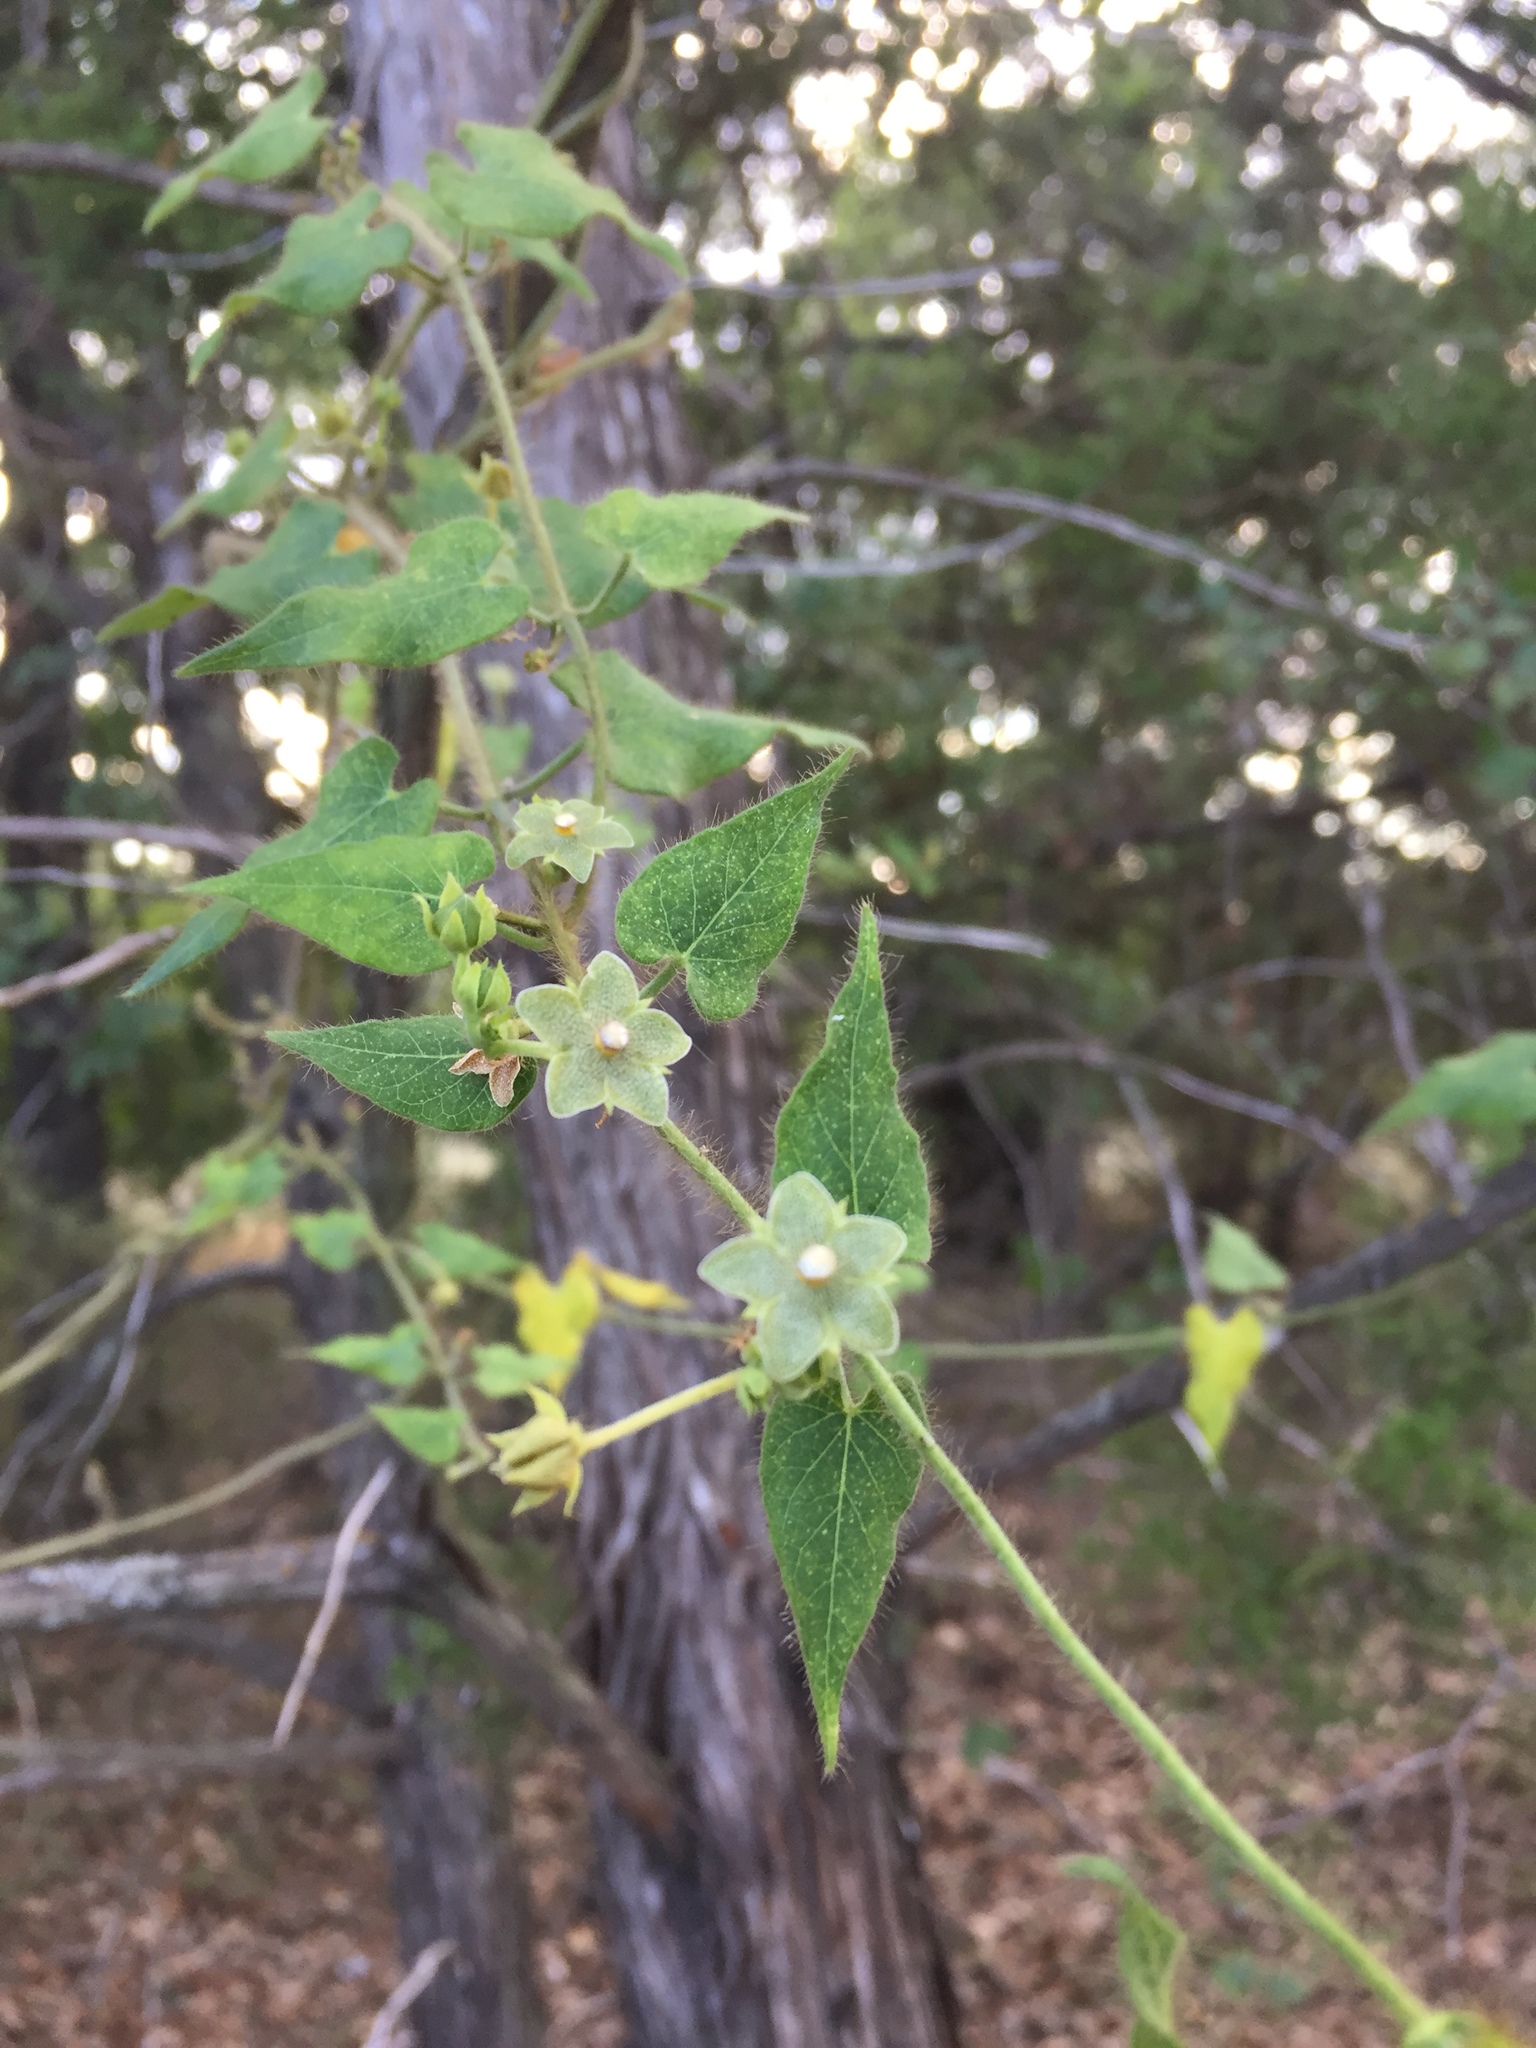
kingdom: Plantae
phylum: Tracheophyta
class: Magnoliopsida
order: Gentianales
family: Apocynaceae
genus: Dictyanthus
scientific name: Dictyanthus reticulatus
